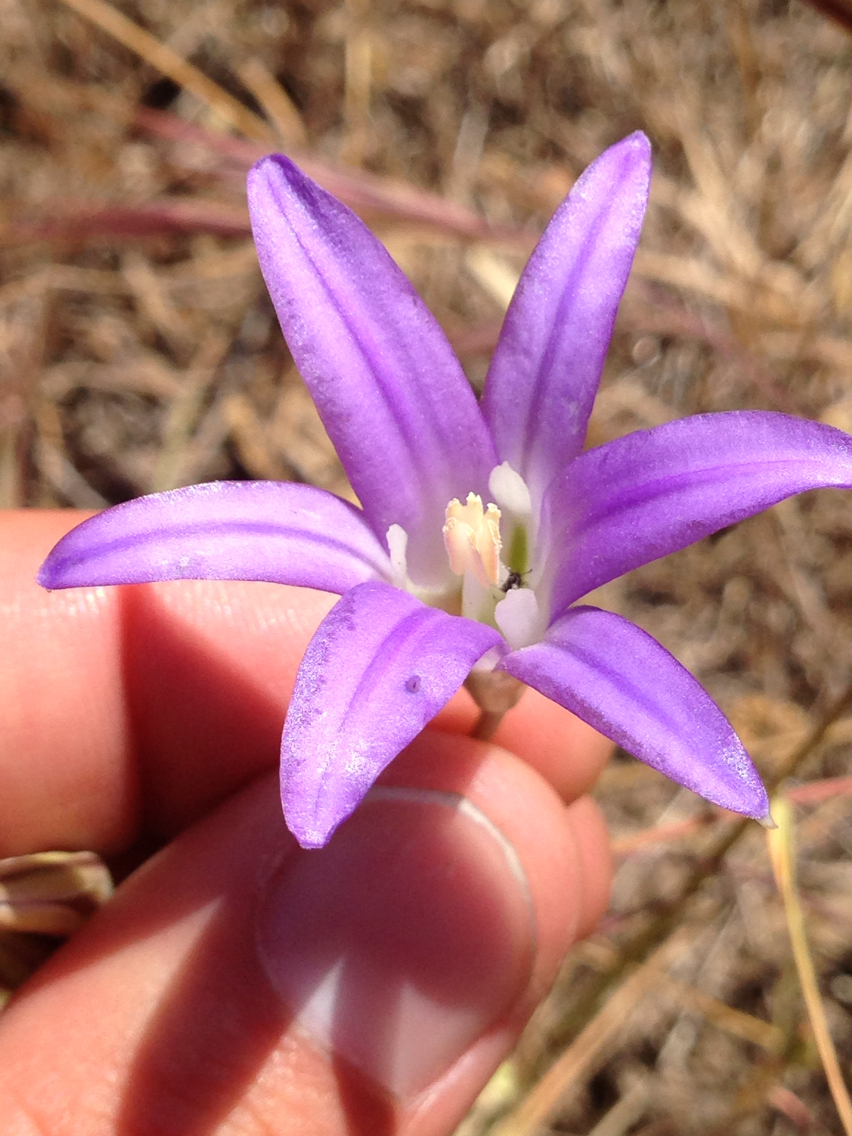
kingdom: Plantae
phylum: Tracheophyta
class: Liliopsida
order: Asparagales
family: Asparagaceae
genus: Brodiaea
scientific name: Brodiaea elegans
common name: Elegant cluster-lily
